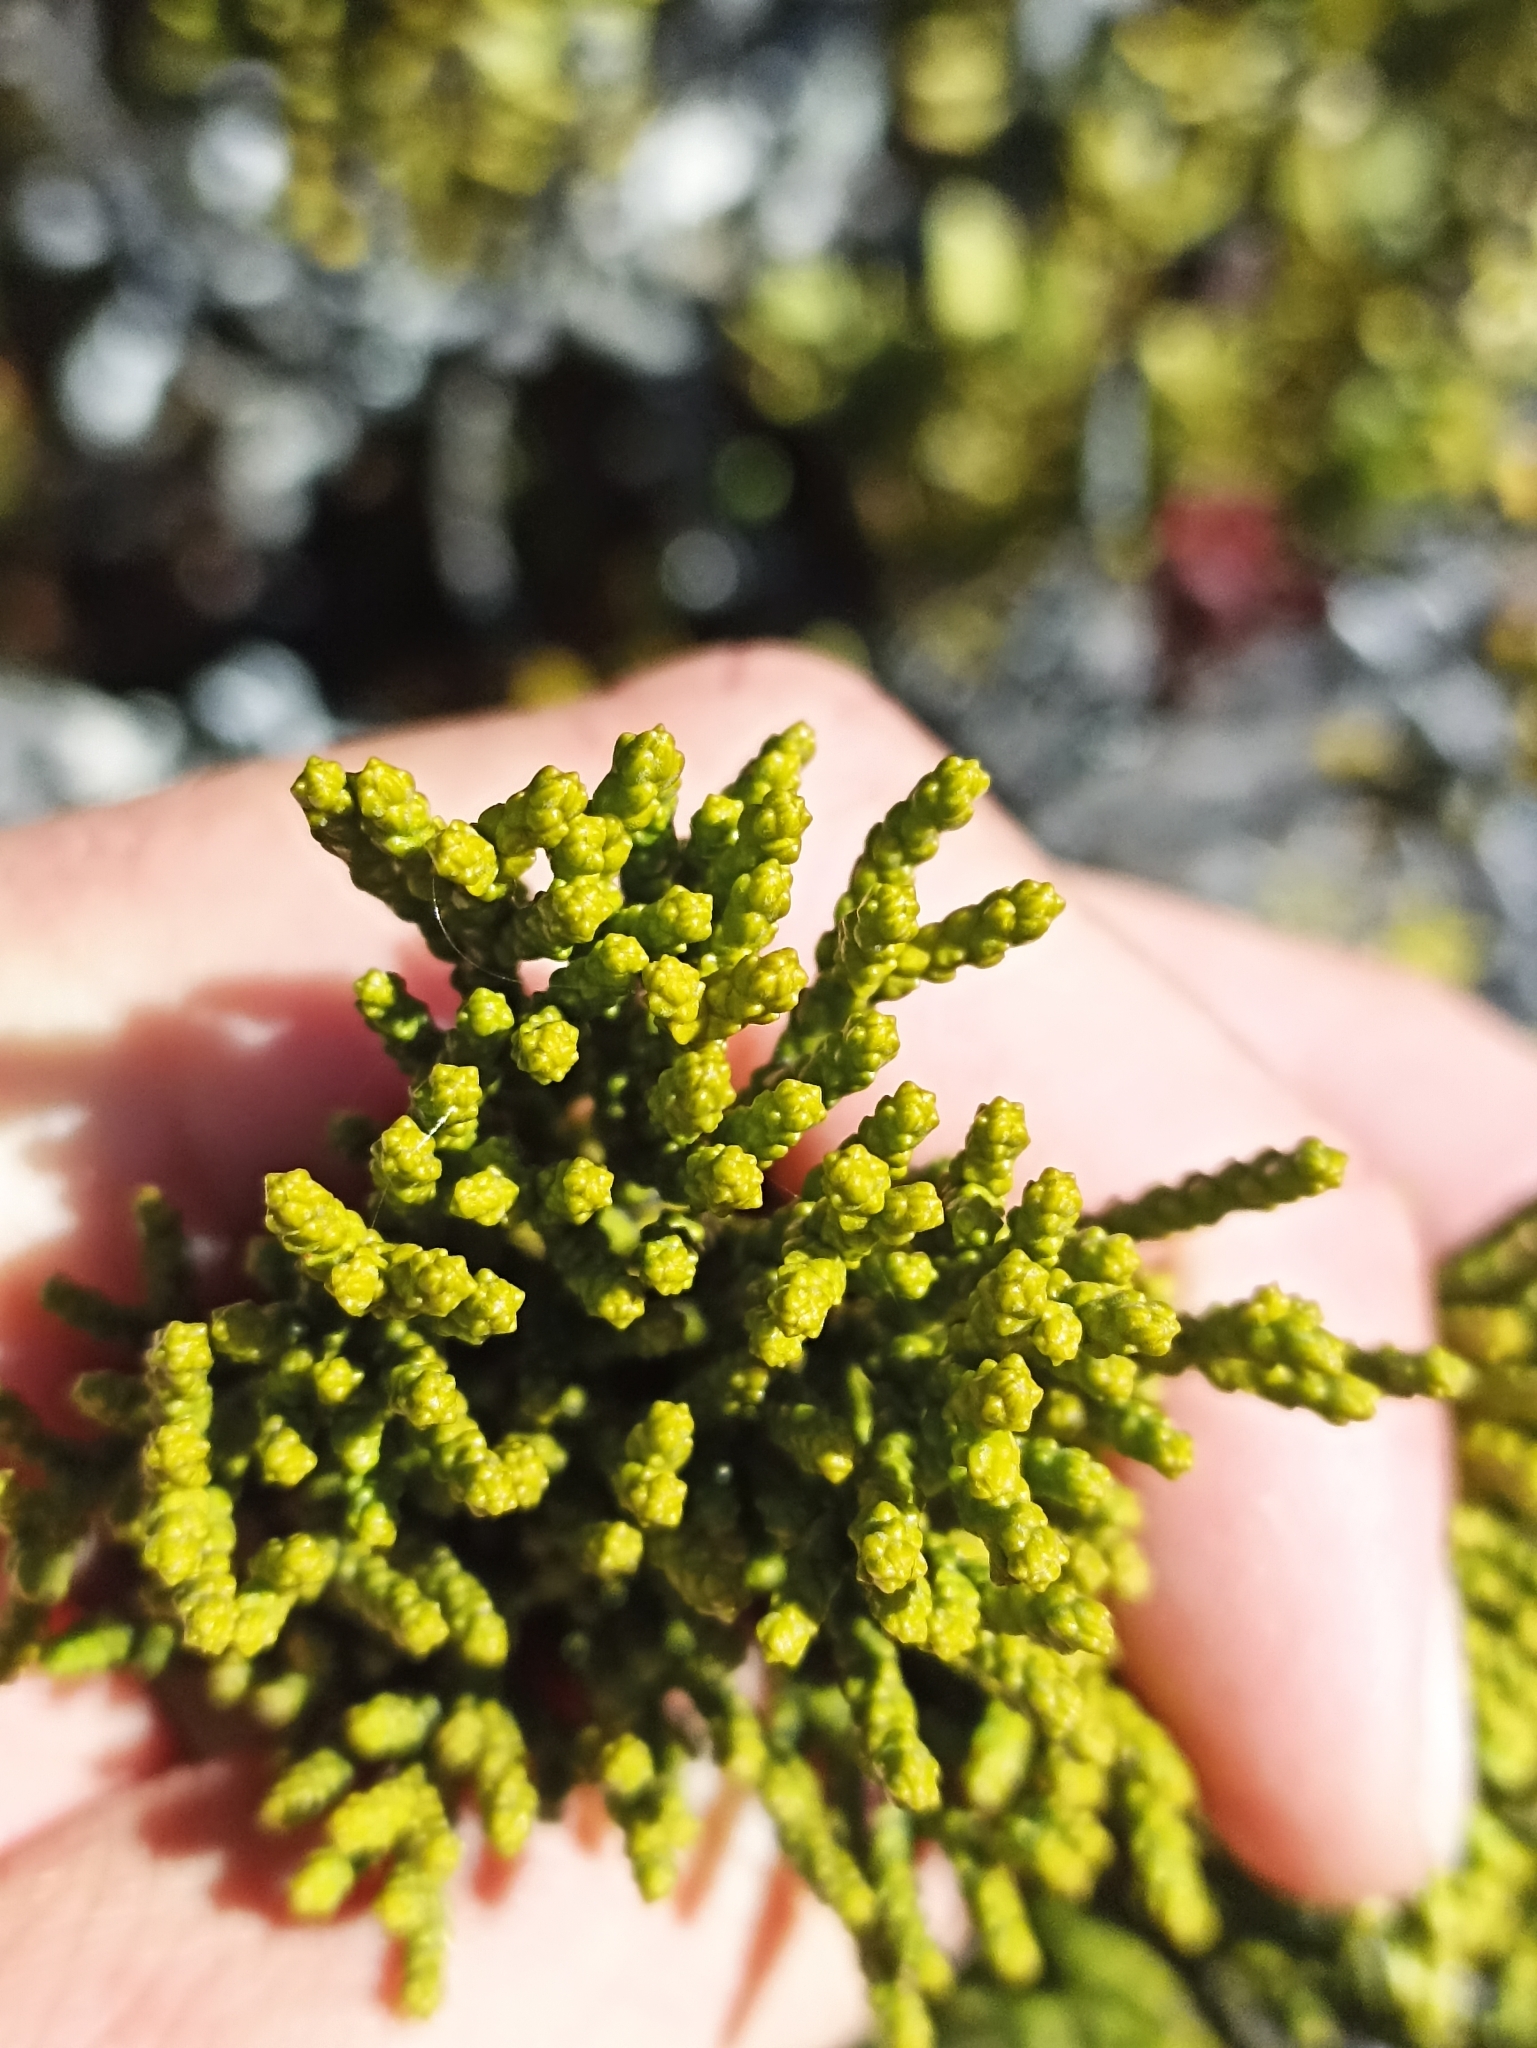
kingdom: Plantae
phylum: Tracheophyta
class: Pinopsida
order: Pinales
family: Podocarpaceae
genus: Halocarpus
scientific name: Halocarpus biformis
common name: Alpine tarwood
